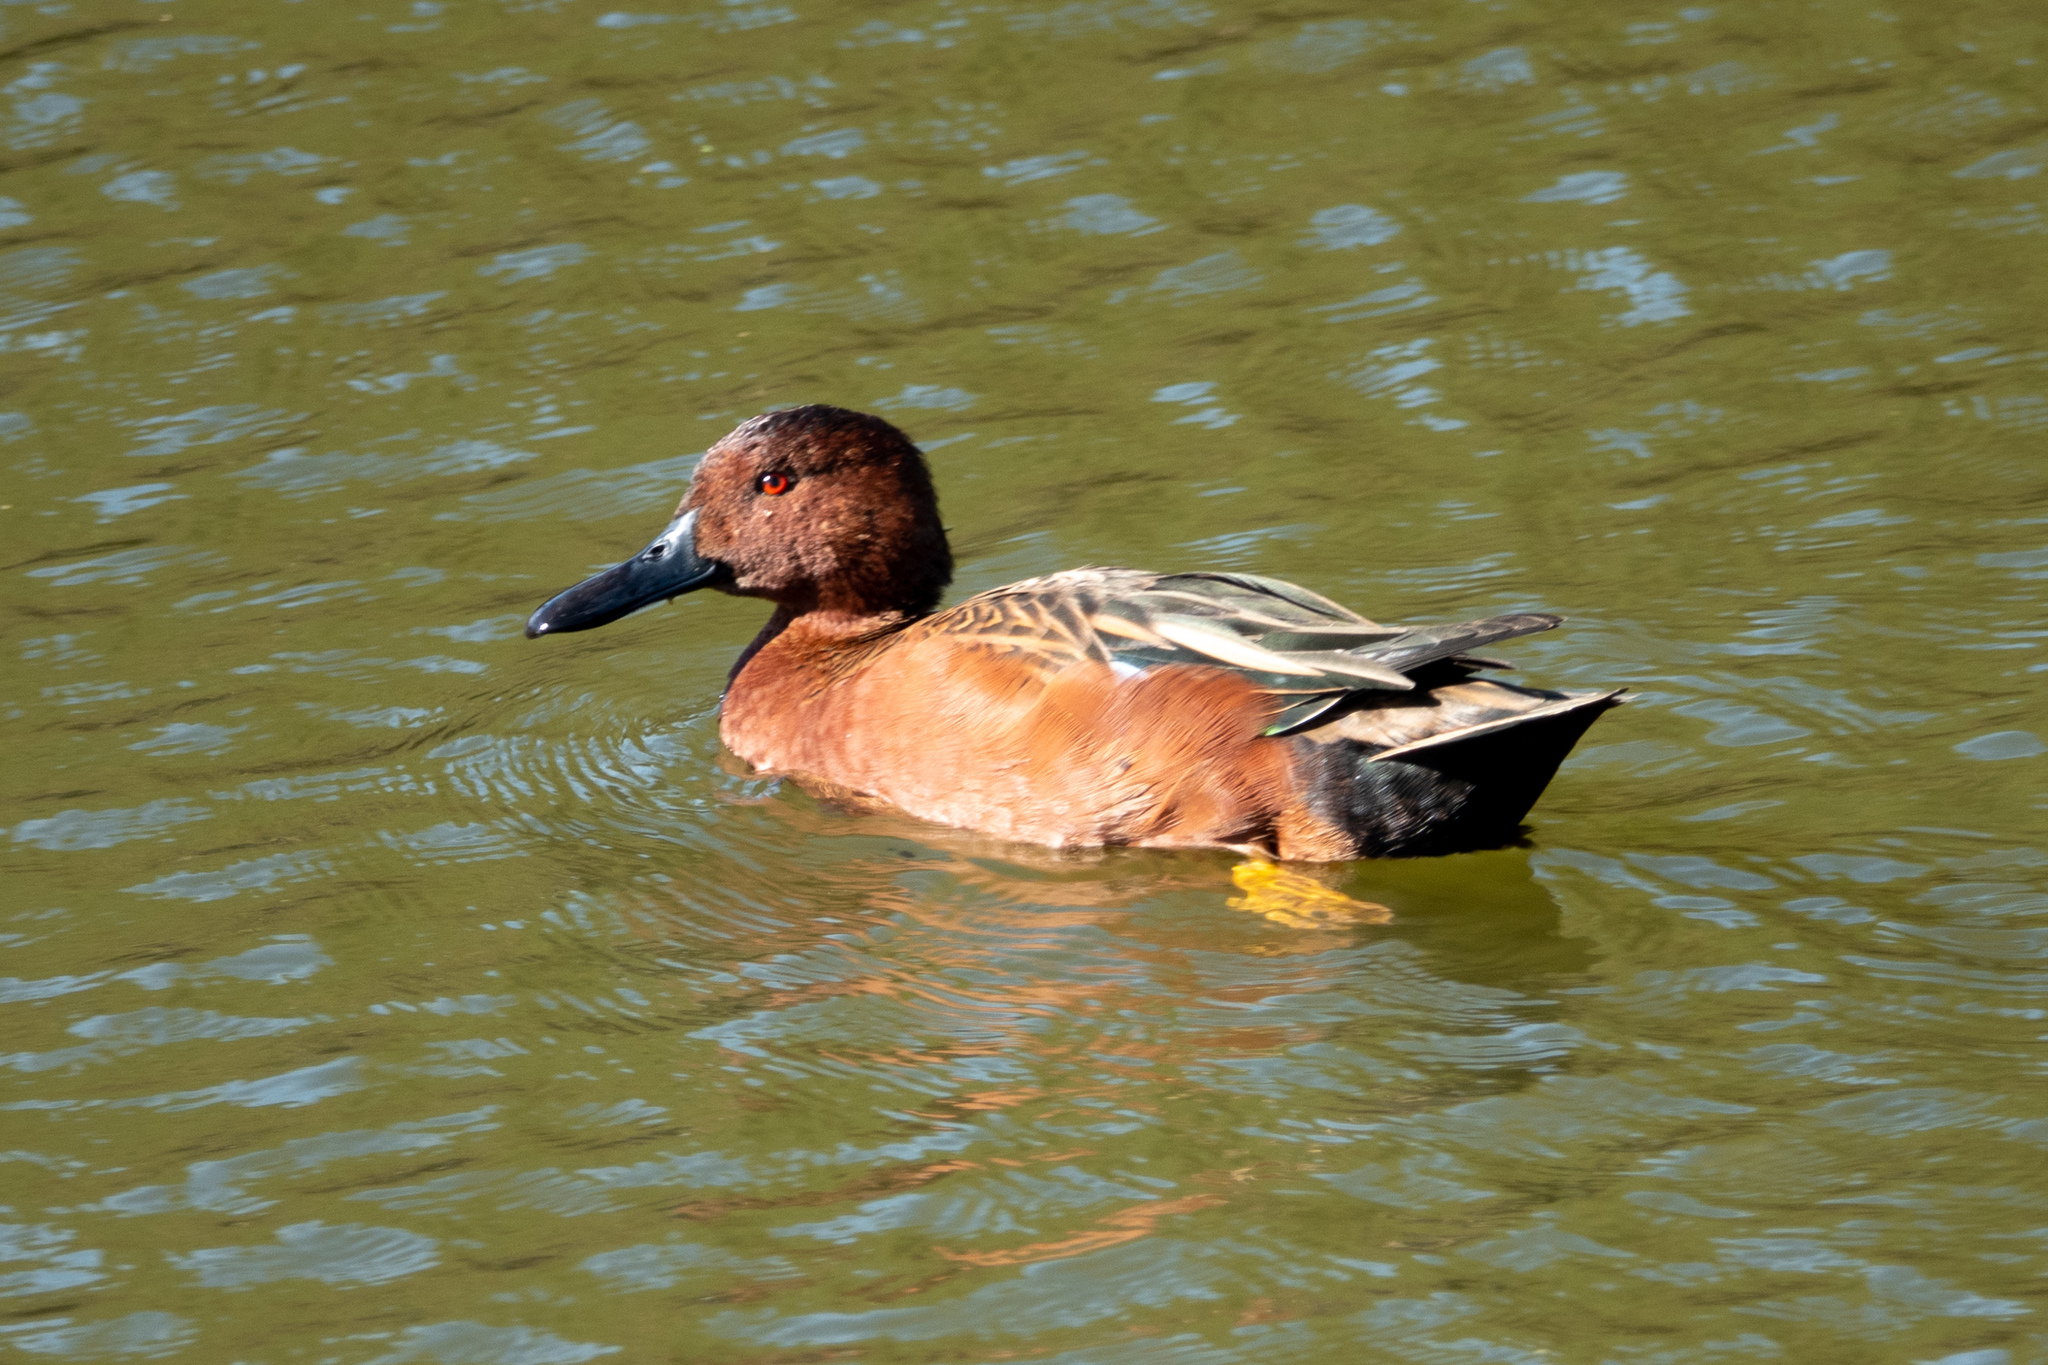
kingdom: Animalia
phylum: Chordata
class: Aves
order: Anseriformes
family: Anatidae
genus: Spatula
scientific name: Spatula cyanoptera
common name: Cinnamon teal
